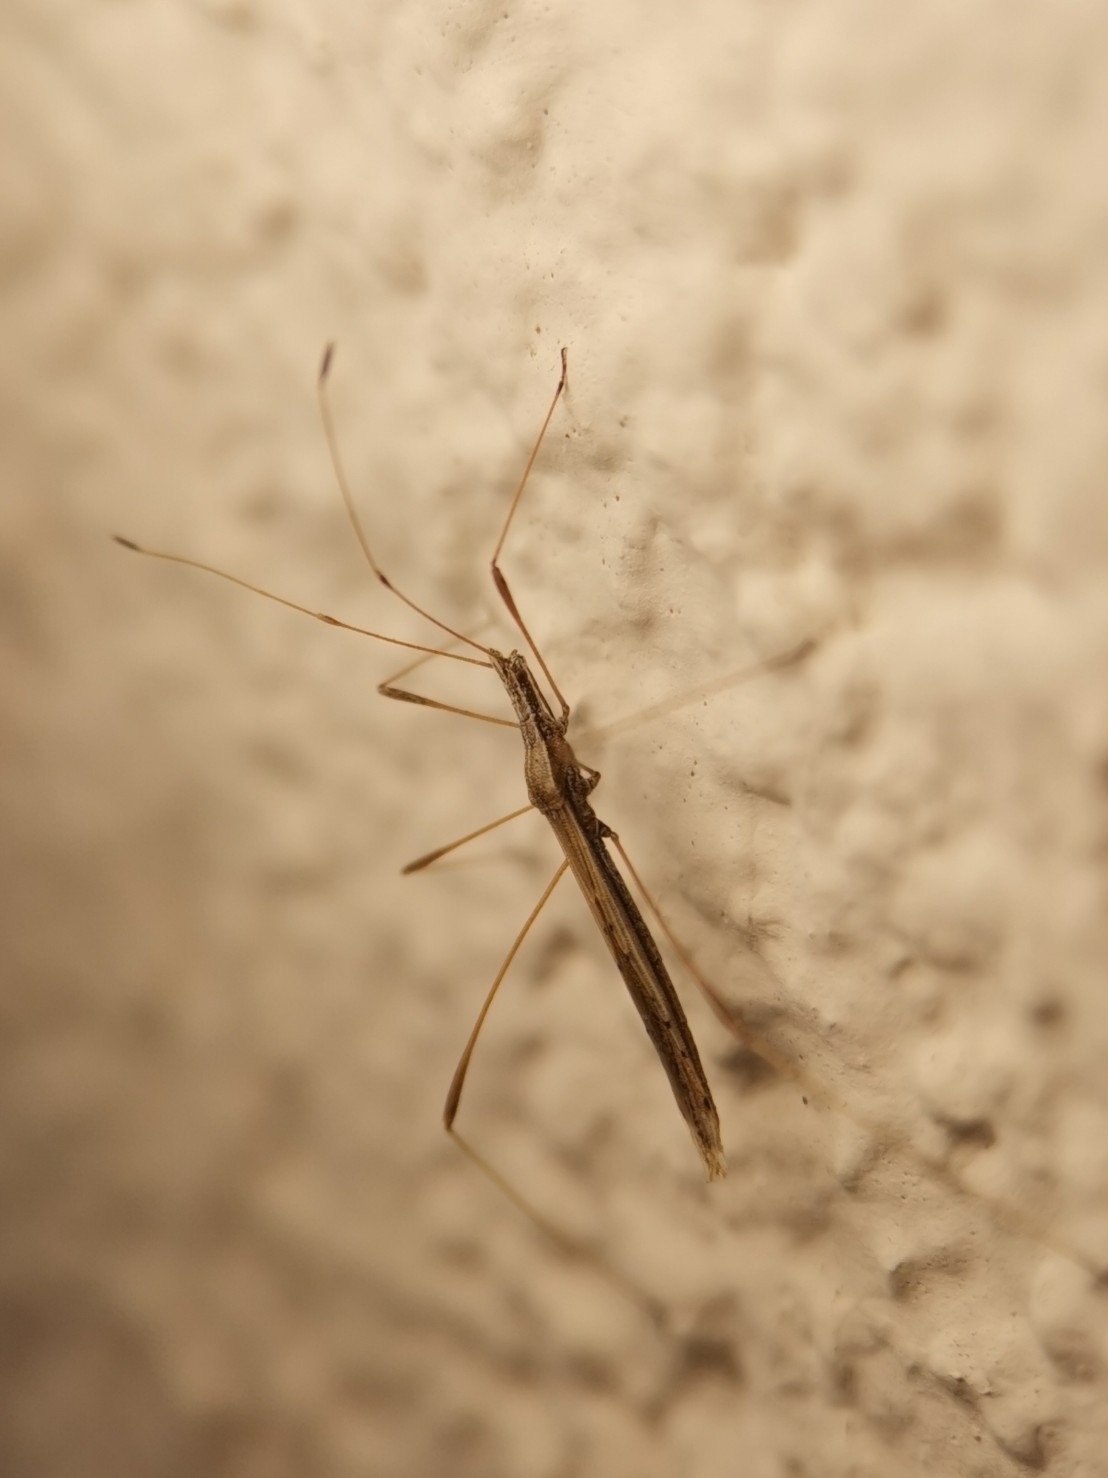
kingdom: Animalia
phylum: Arthropoda
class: Insecta
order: Hemiptera
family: Berytidae
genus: Neides
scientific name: Neides tipularius
